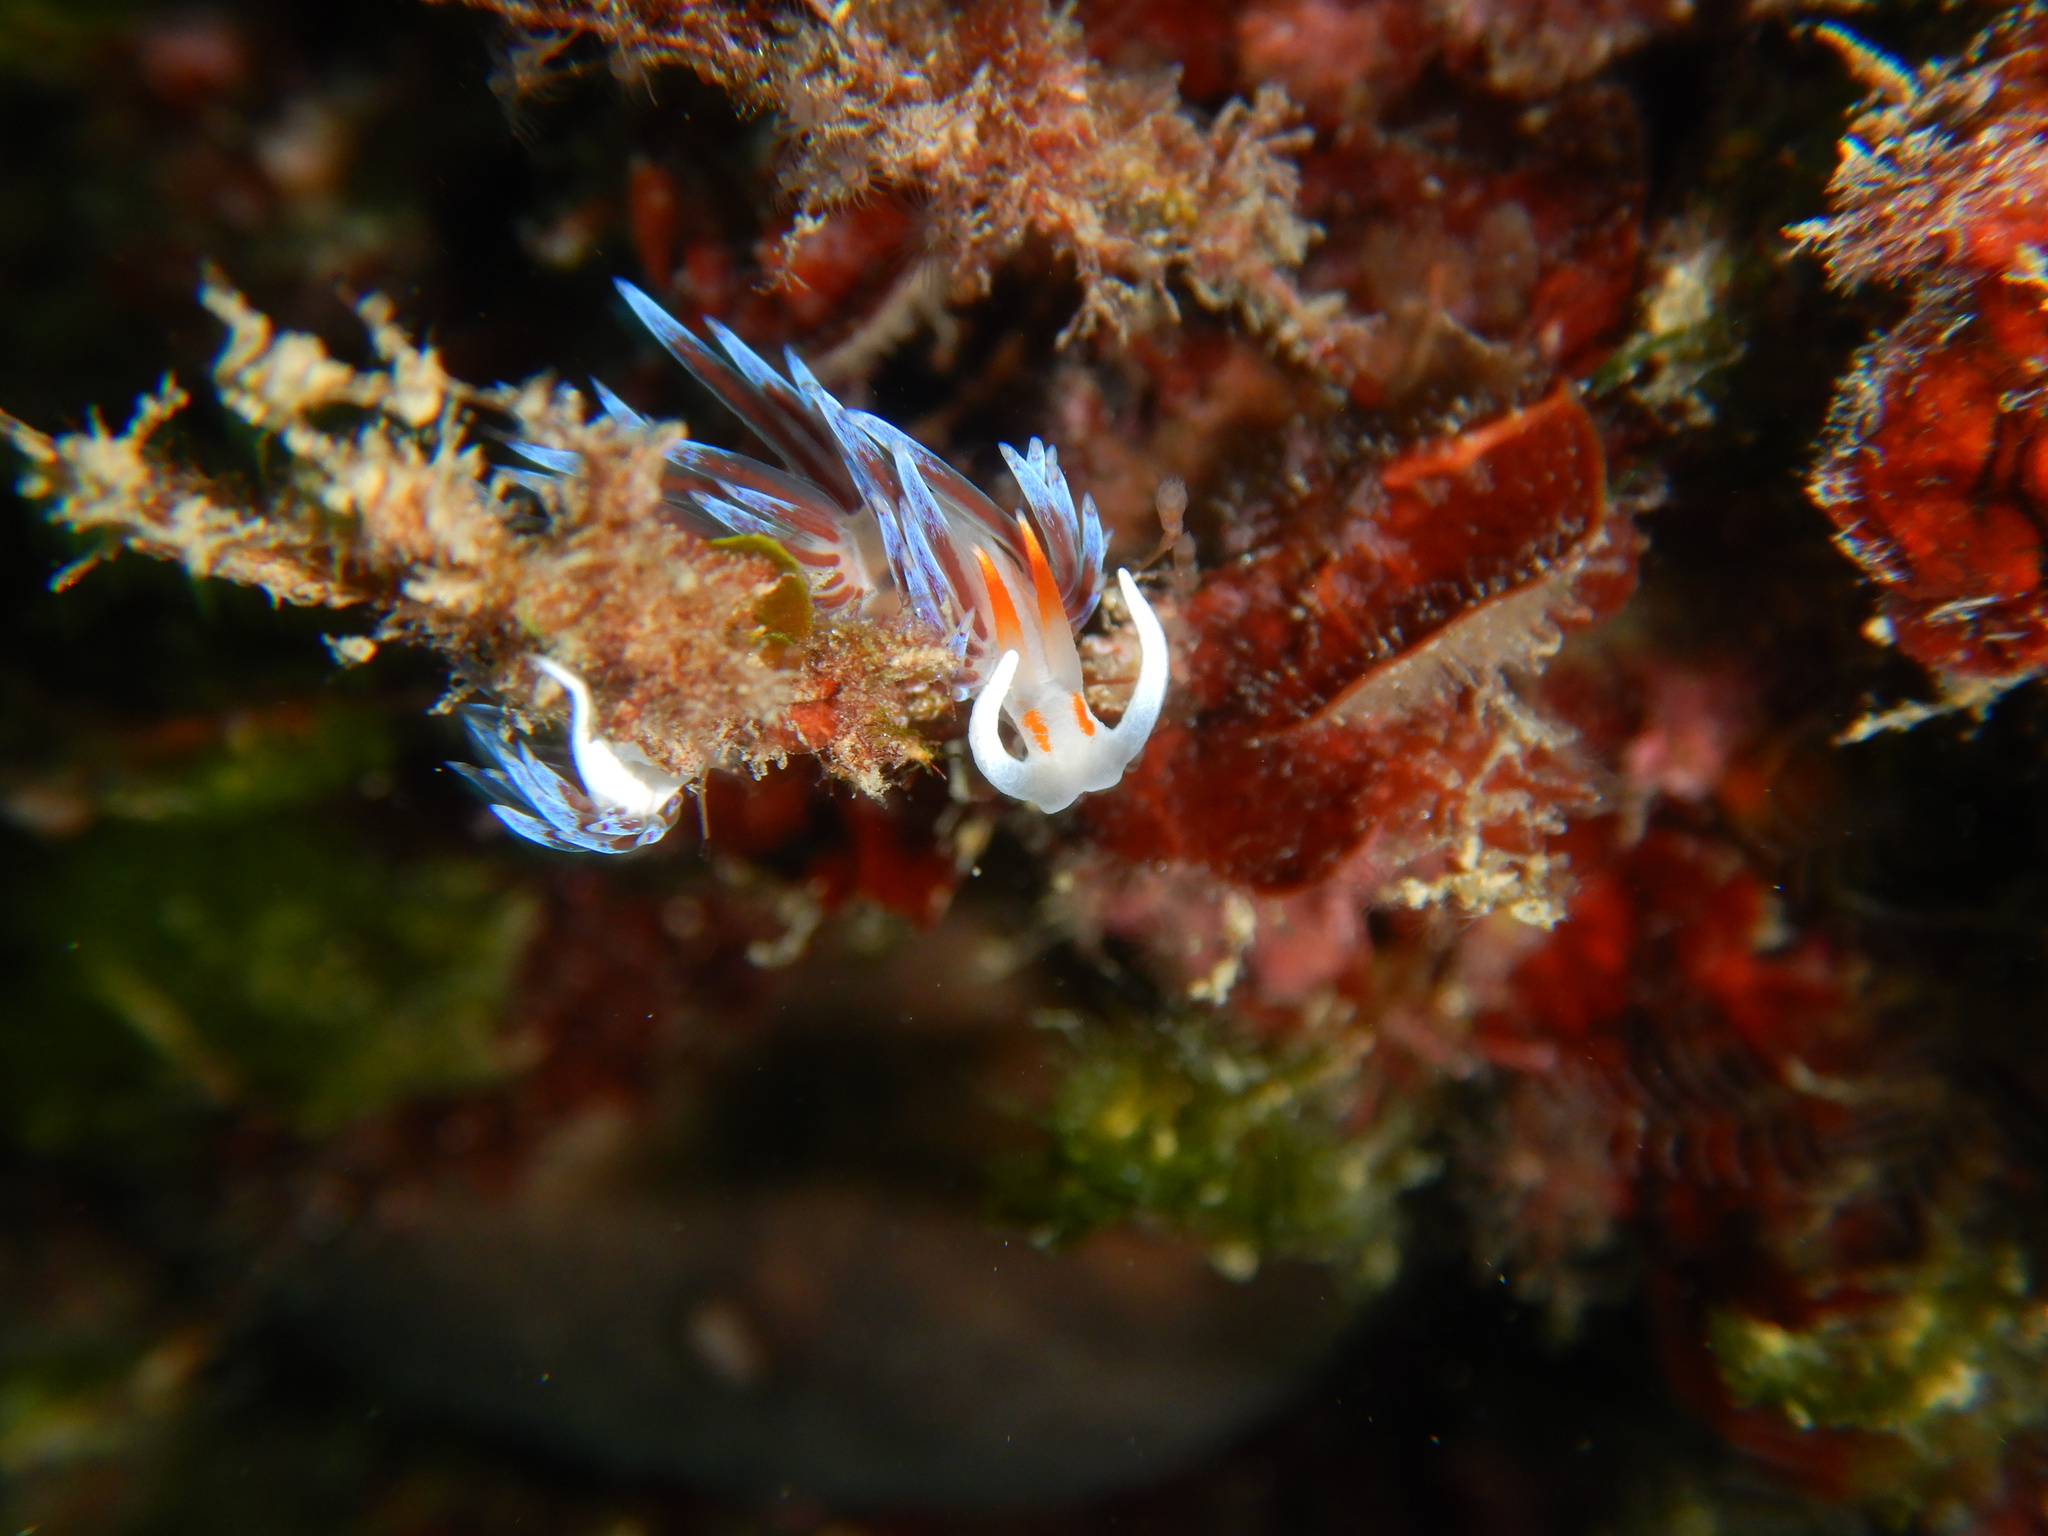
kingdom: Animalia
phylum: Mollusca
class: Gastropoda
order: Nudibranchia
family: Facelinidae
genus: Cratena
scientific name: Cratena peregrina
